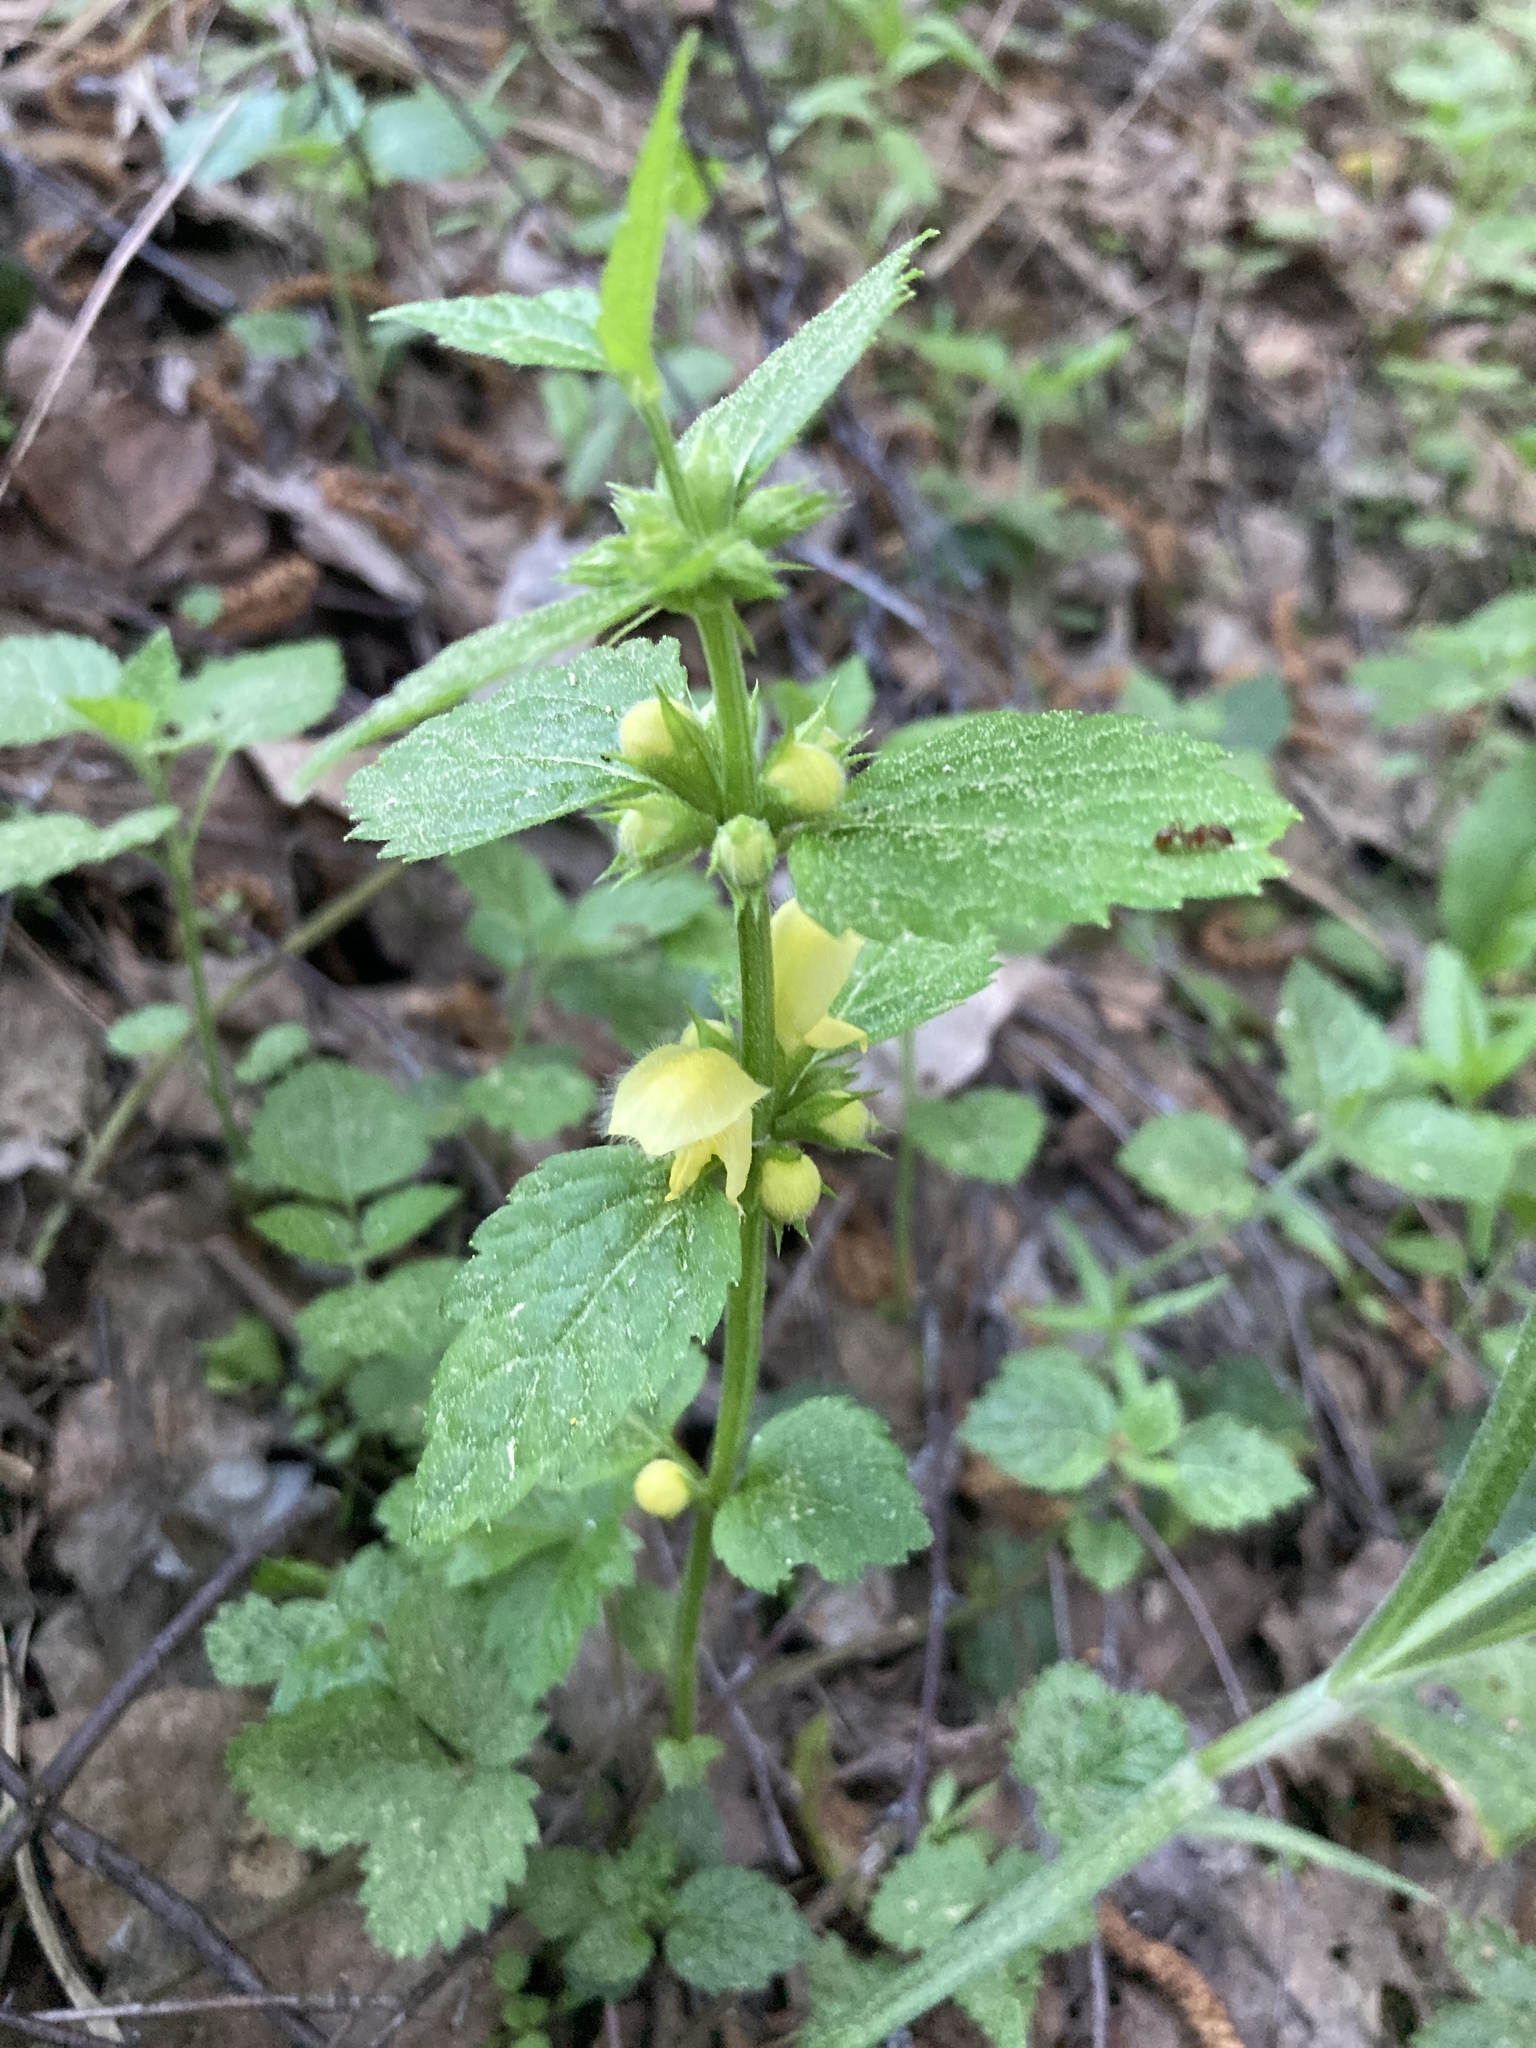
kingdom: Plantae
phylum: Tracheophyta
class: Magnoliopsida
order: Lamiales
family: Lamiaceae
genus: Lamium
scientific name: Lamium galeobdolon
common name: Yellow archangel
